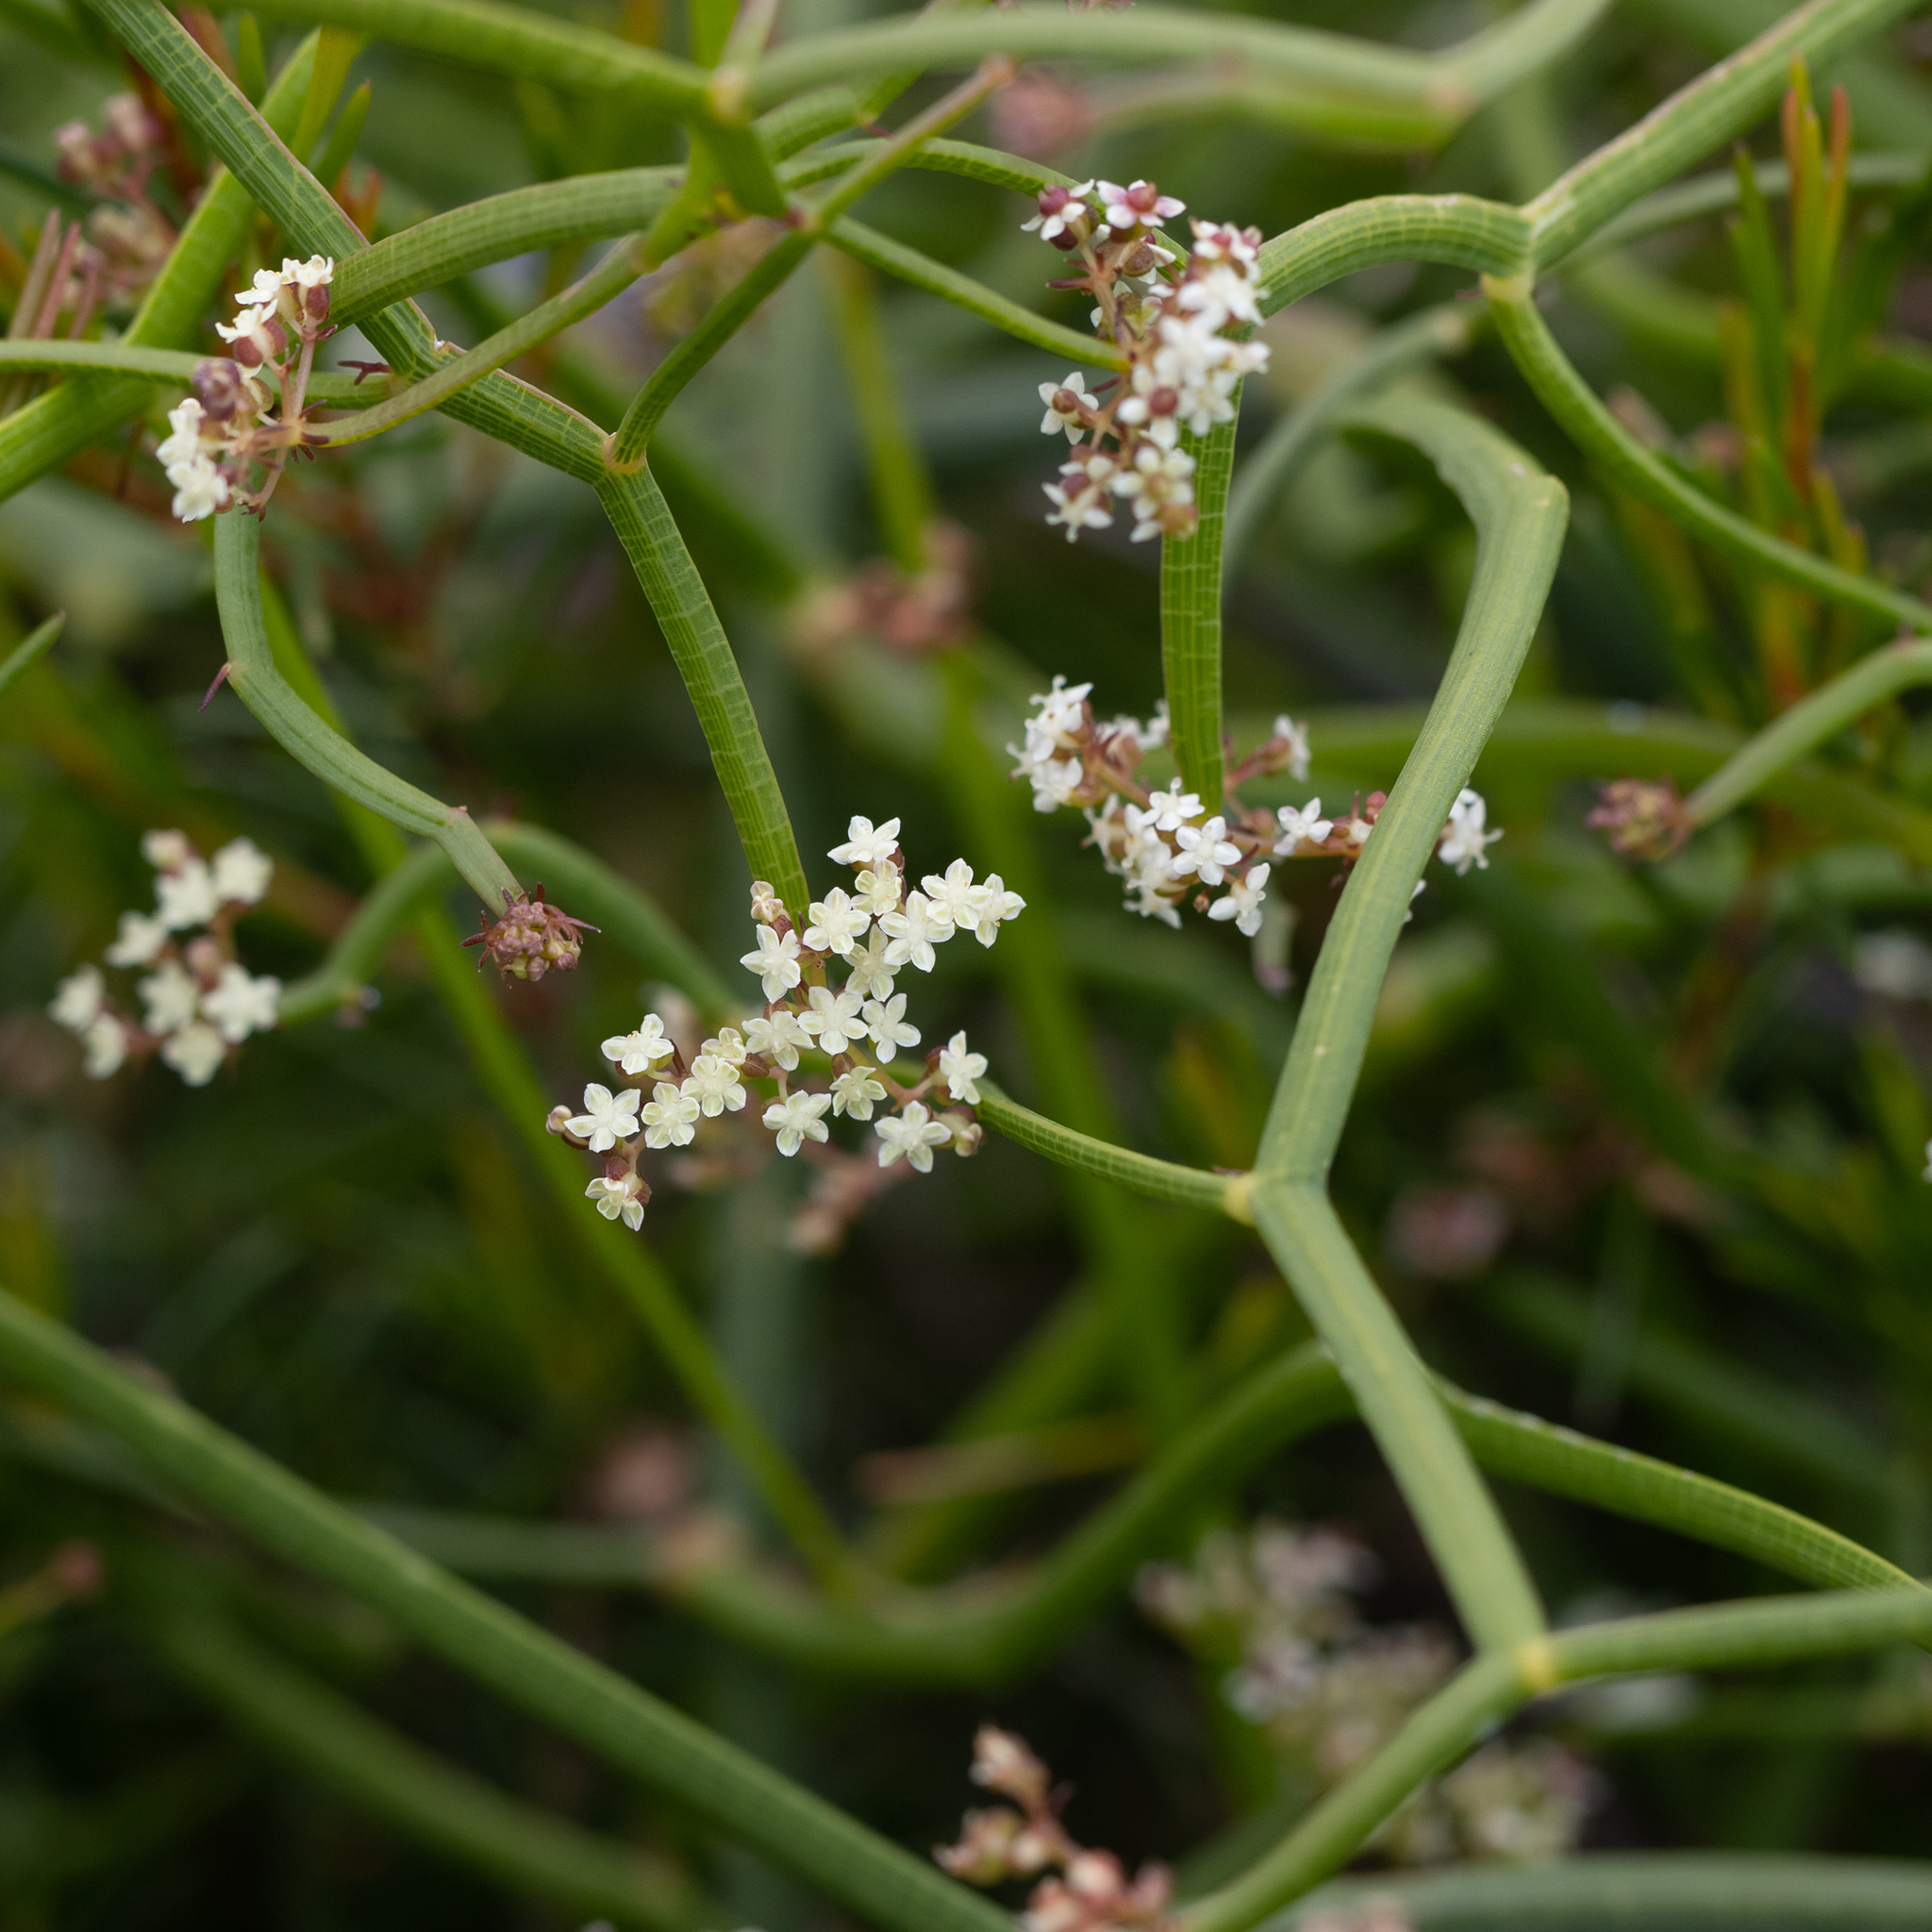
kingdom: Plantae
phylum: Tracheophyta
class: Magnoliopsida
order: Apiales
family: Apiaceae
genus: Platysace
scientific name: Platysace compressa
